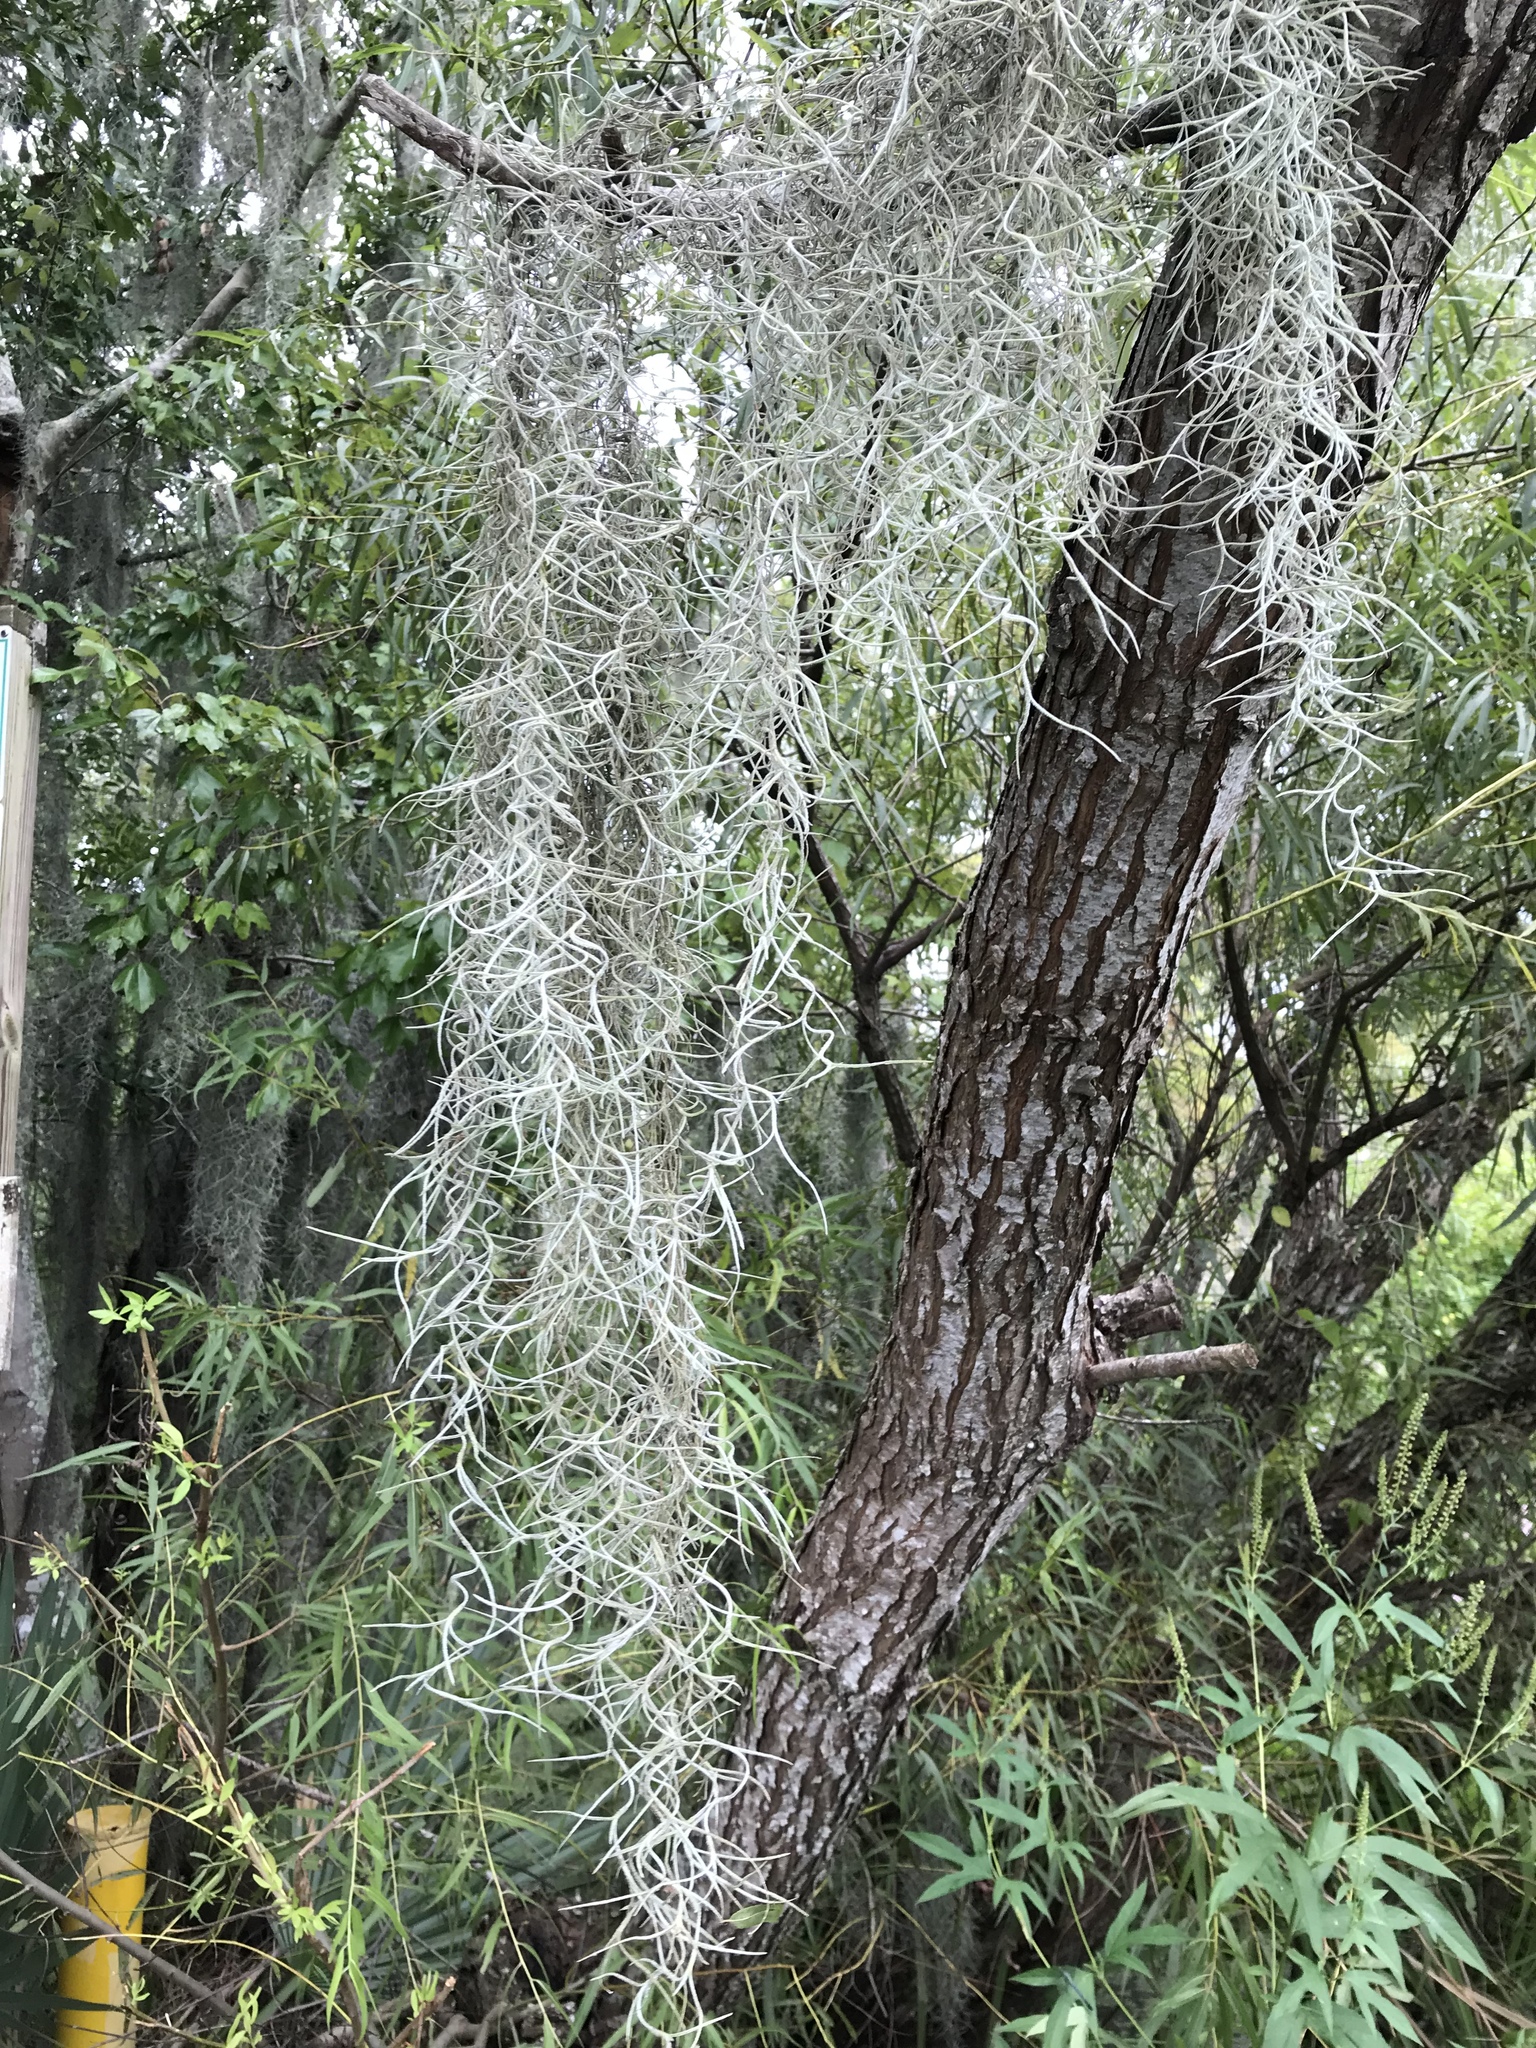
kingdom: Plantae
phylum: Tracheophyta
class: Liliopsida
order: Poales
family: Bromeliaceae
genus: Tillandsia
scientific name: Tillandsia usneoides
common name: Spanish moss
